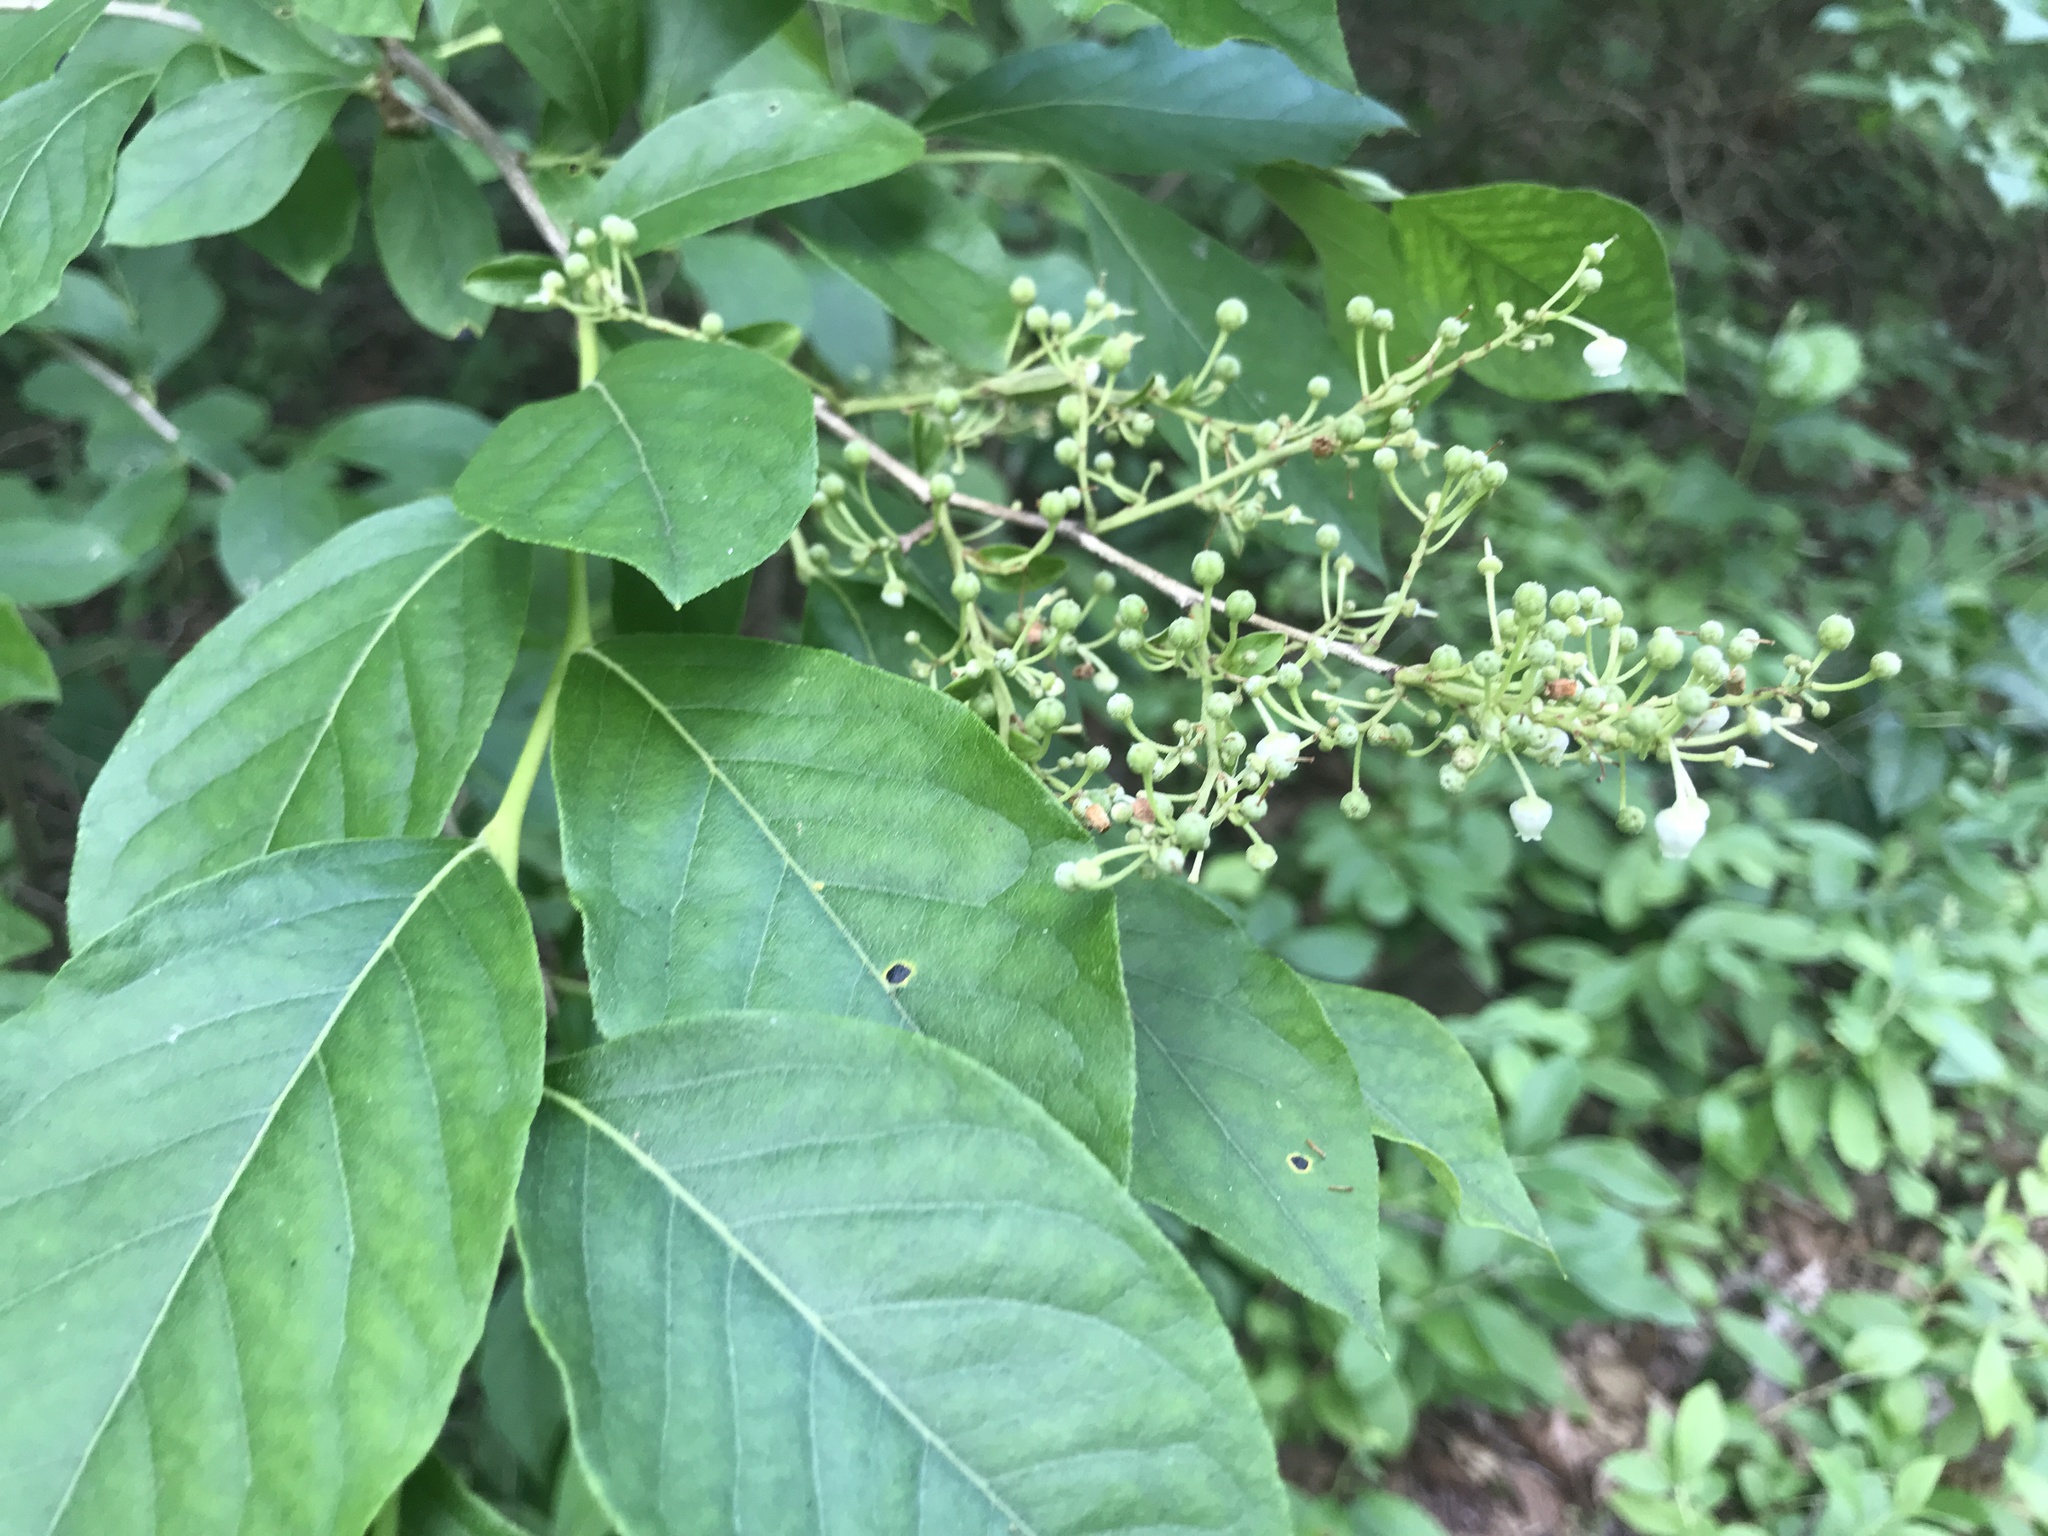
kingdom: Plantae
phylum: Tracheophyta
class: Magnoliopsida
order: Ericales
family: Ericaceae
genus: Lyonia
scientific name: Lyonia ligustrina
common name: Maleberry
